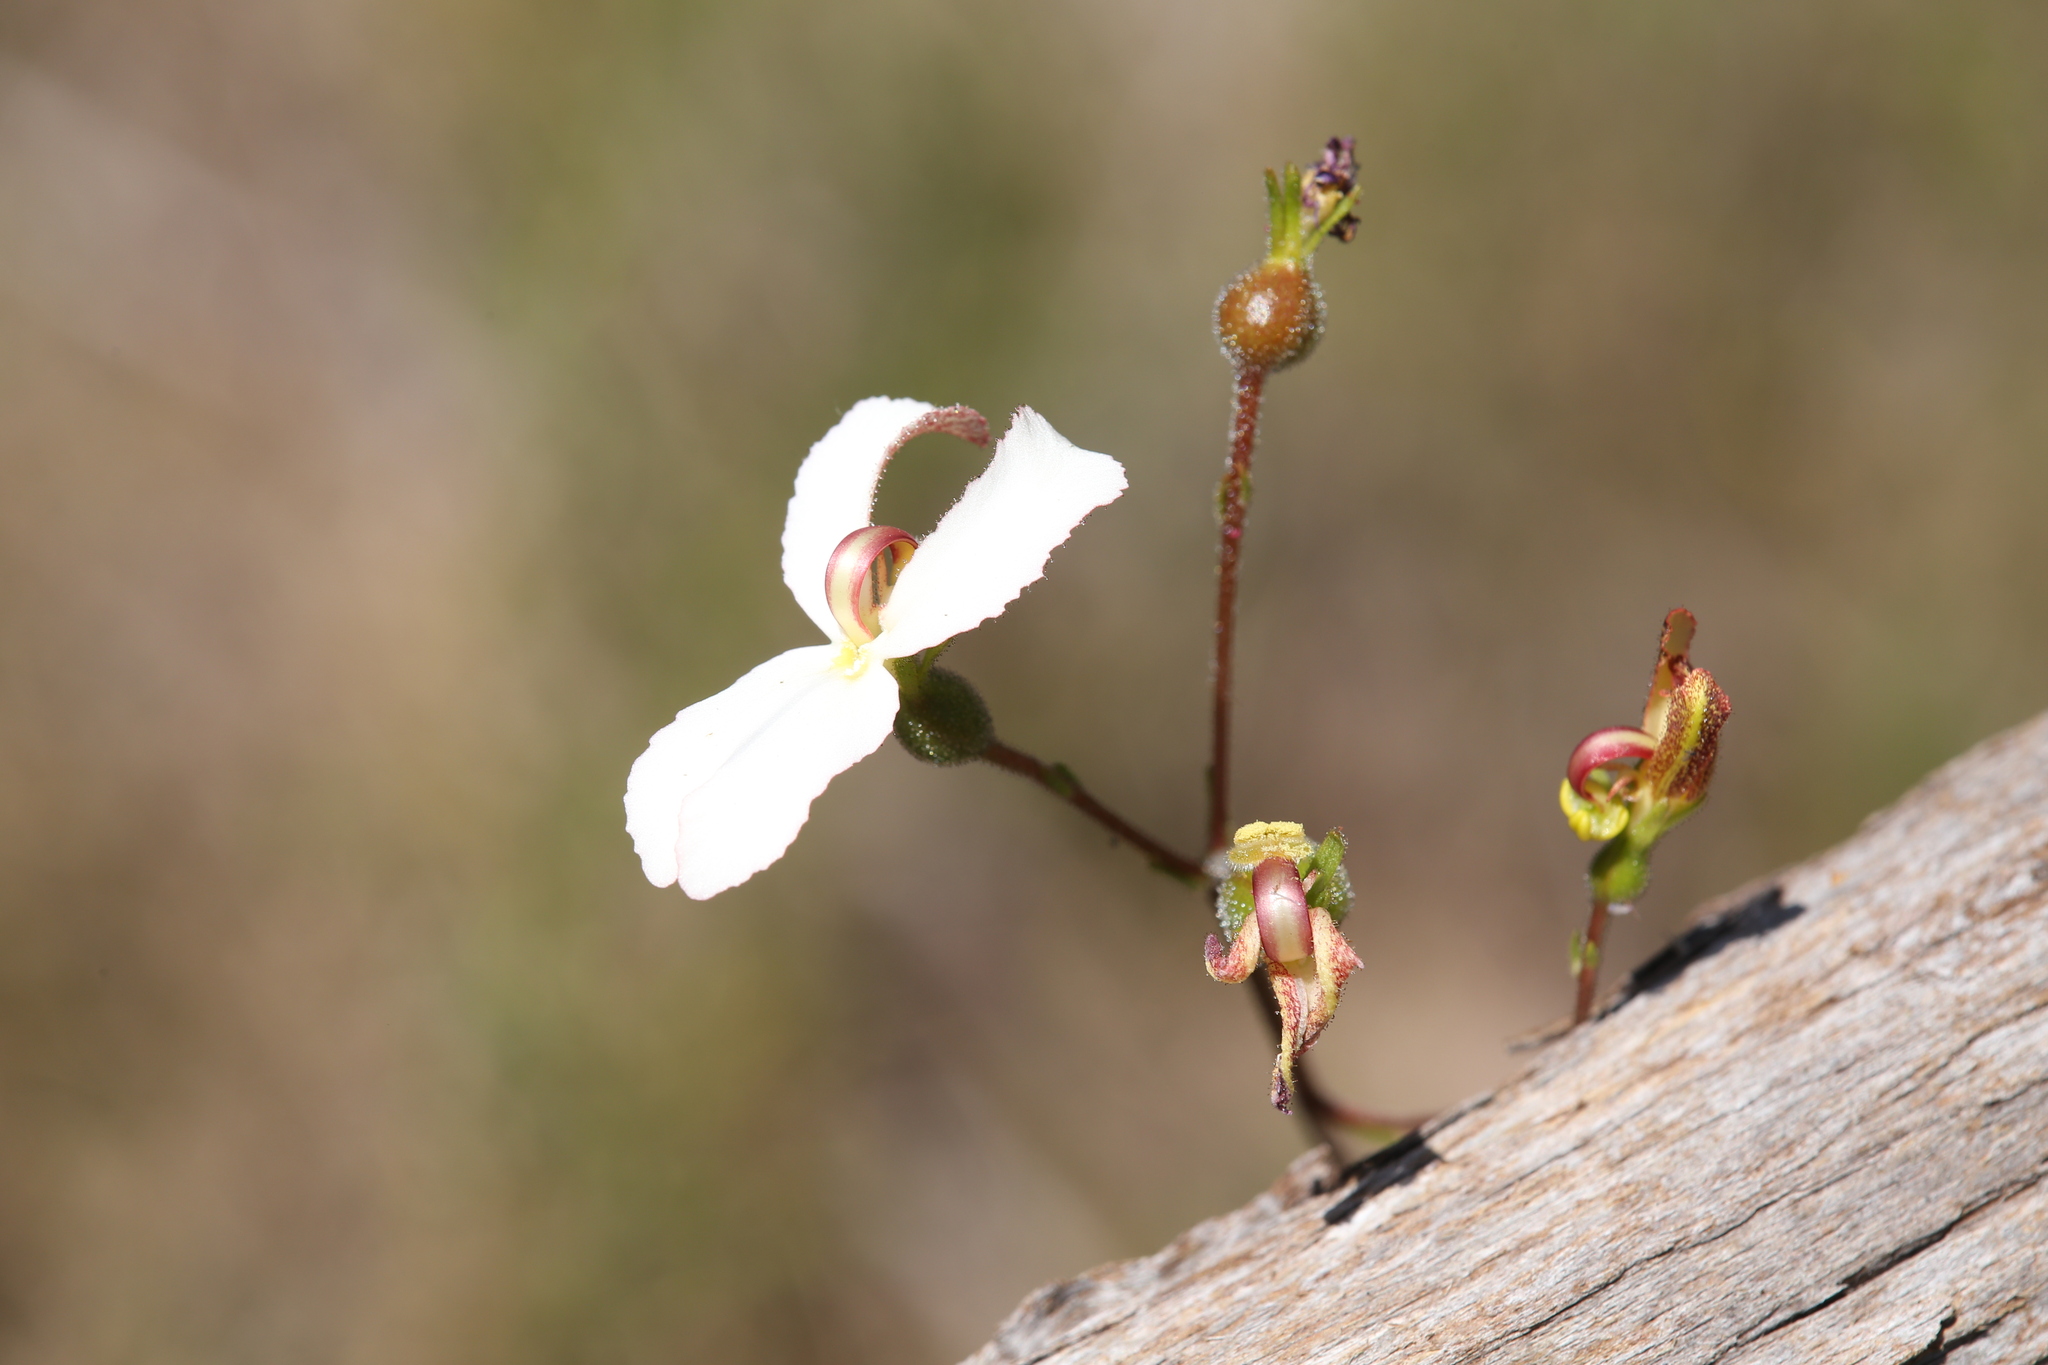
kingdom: Plantae
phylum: Tracheophyta
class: Magnoliopsida
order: Asterales
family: Stylidiaceae
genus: Stylidium
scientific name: Stylidium schoenoides
